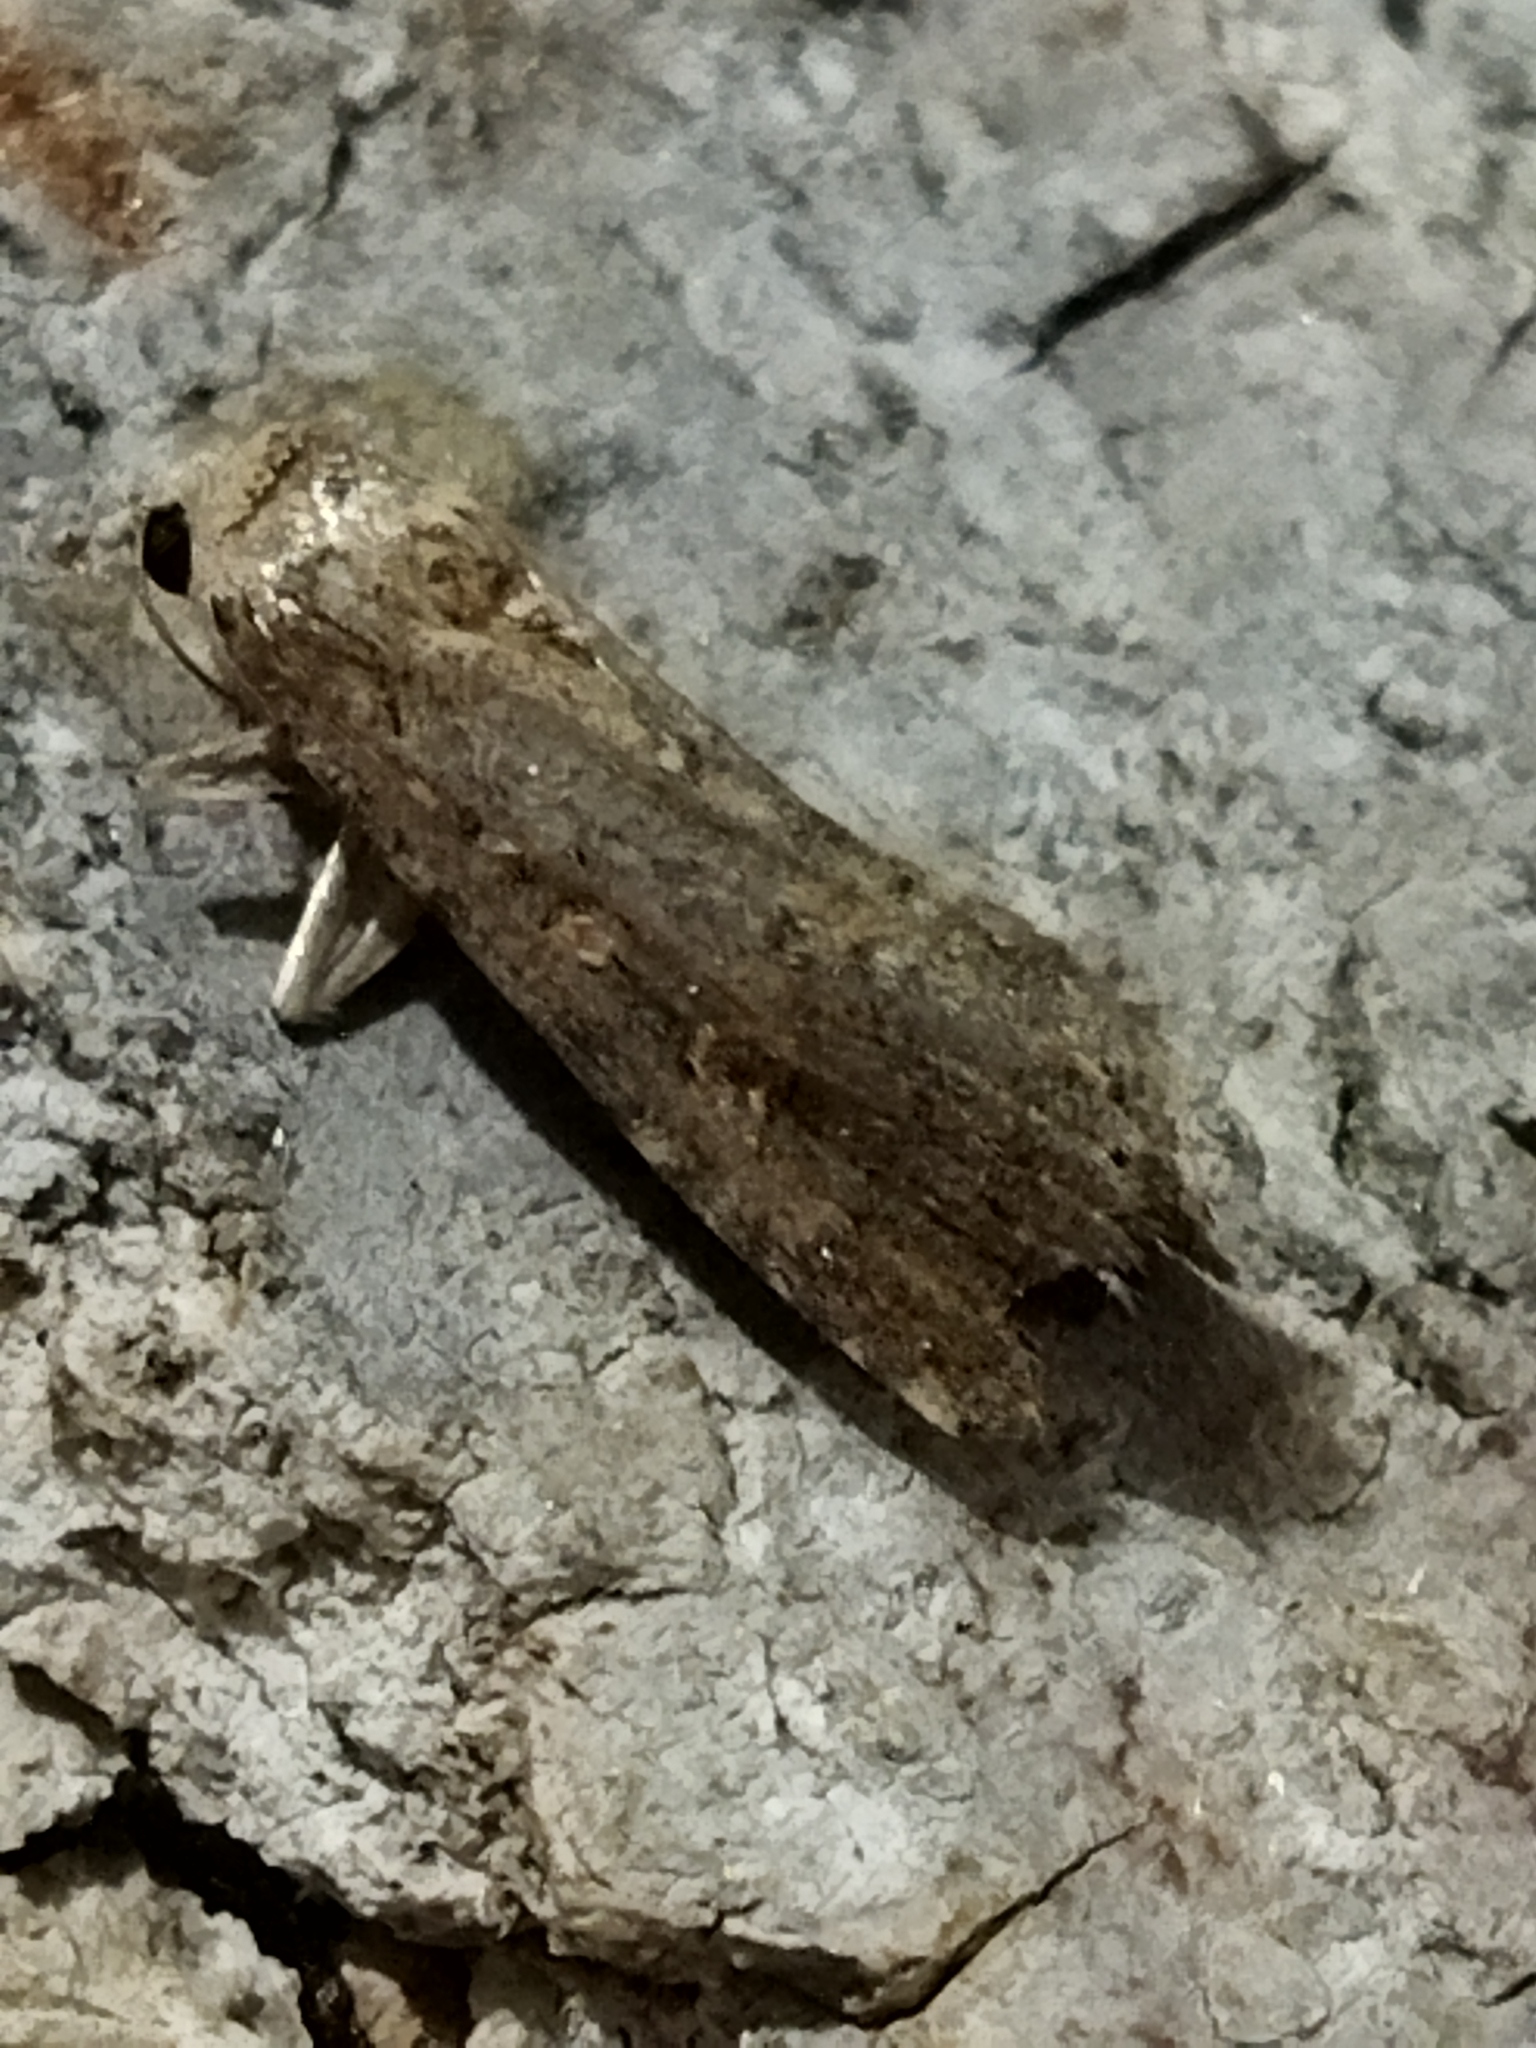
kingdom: Animalia
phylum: Arthropoda
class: Insecta
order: Lepidoptera
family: Noctuidae
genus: Spodoptera
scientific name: Spodoptera exigua
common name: Beet armyworm
